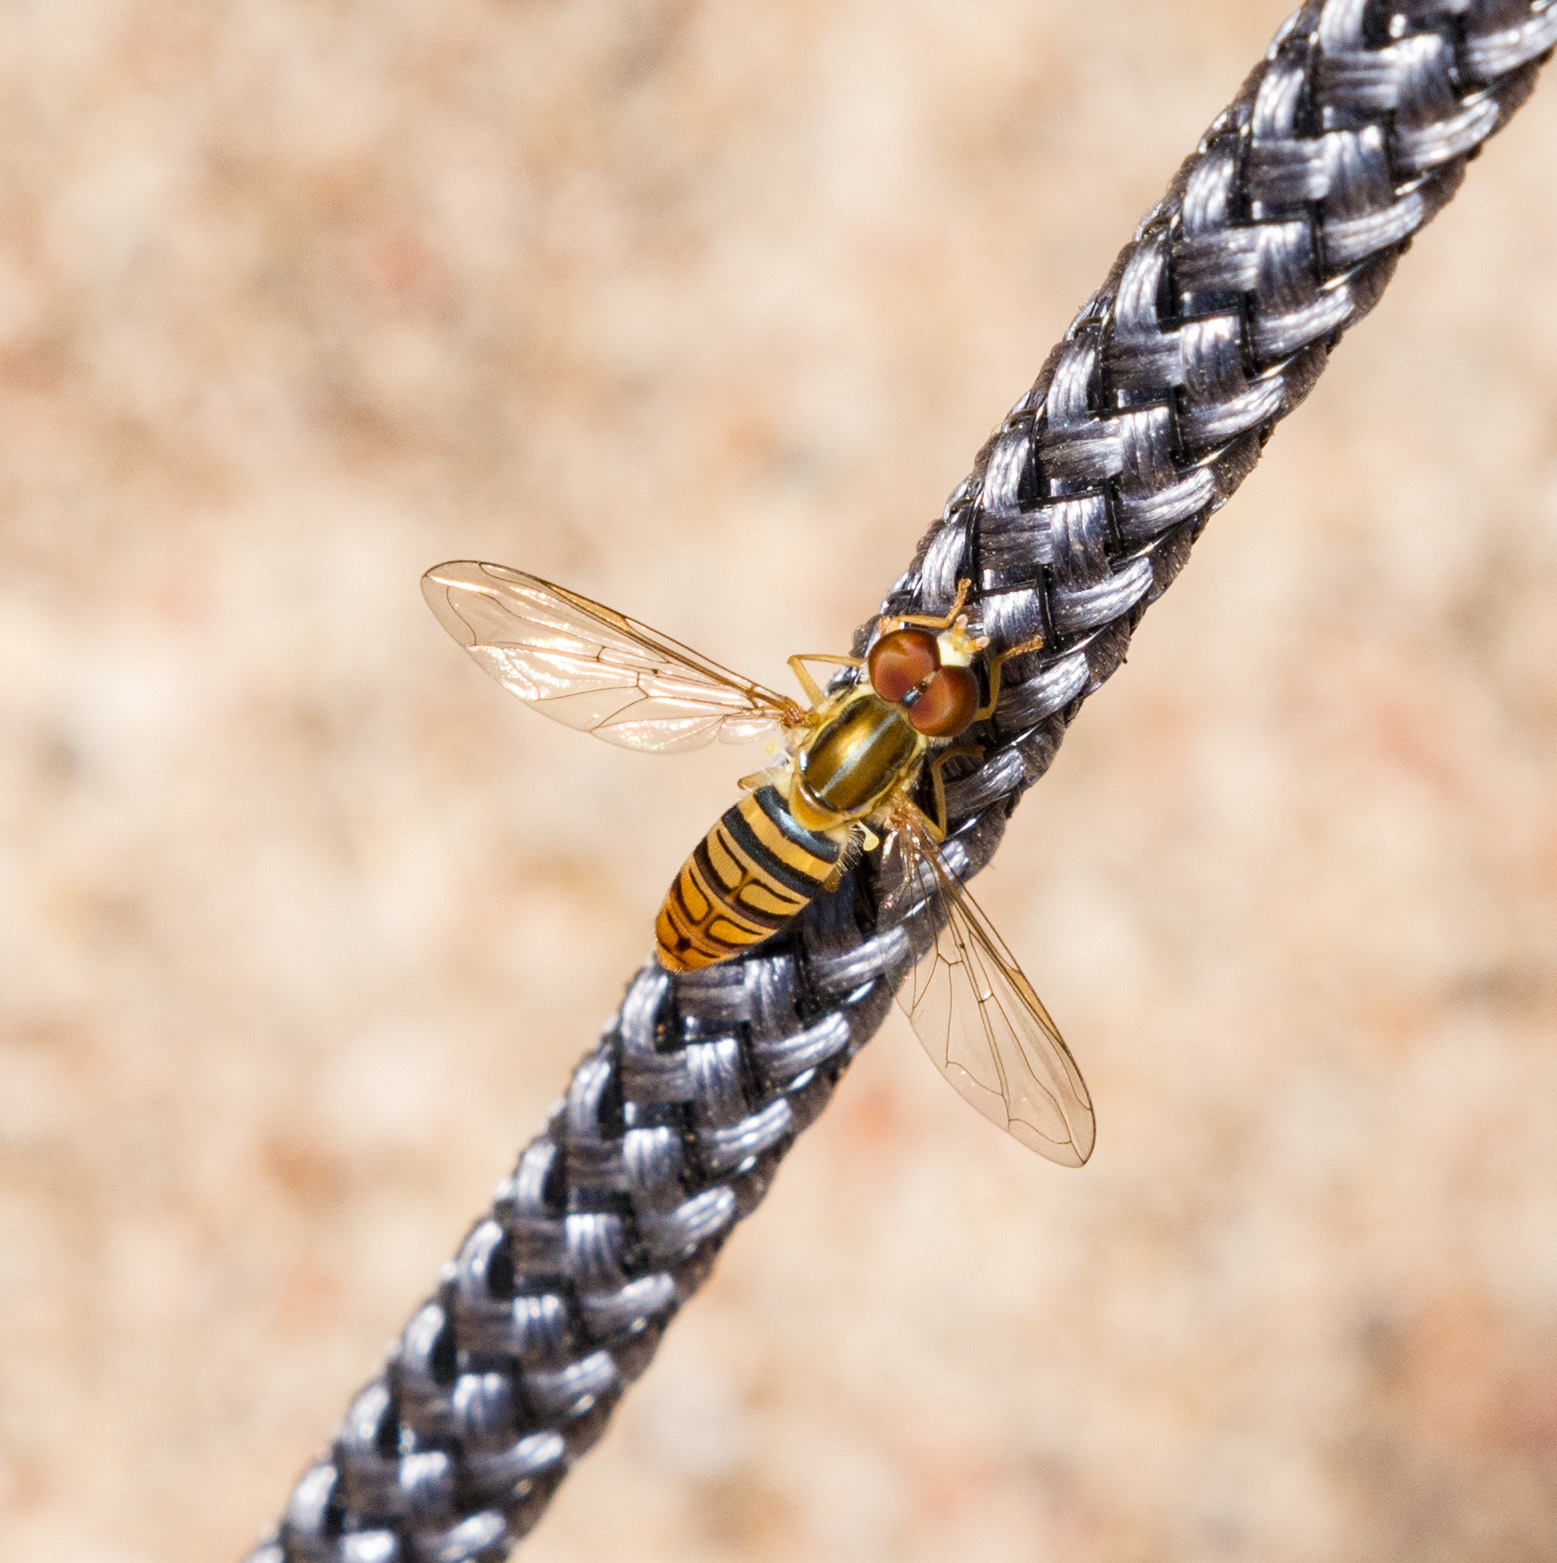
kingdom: Animalia
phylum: Arthropoda
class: Insecta
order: Diptera
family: Syrphidae
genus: Toxomerus
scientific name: Toxomerus politus
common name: Maize calligrapher
